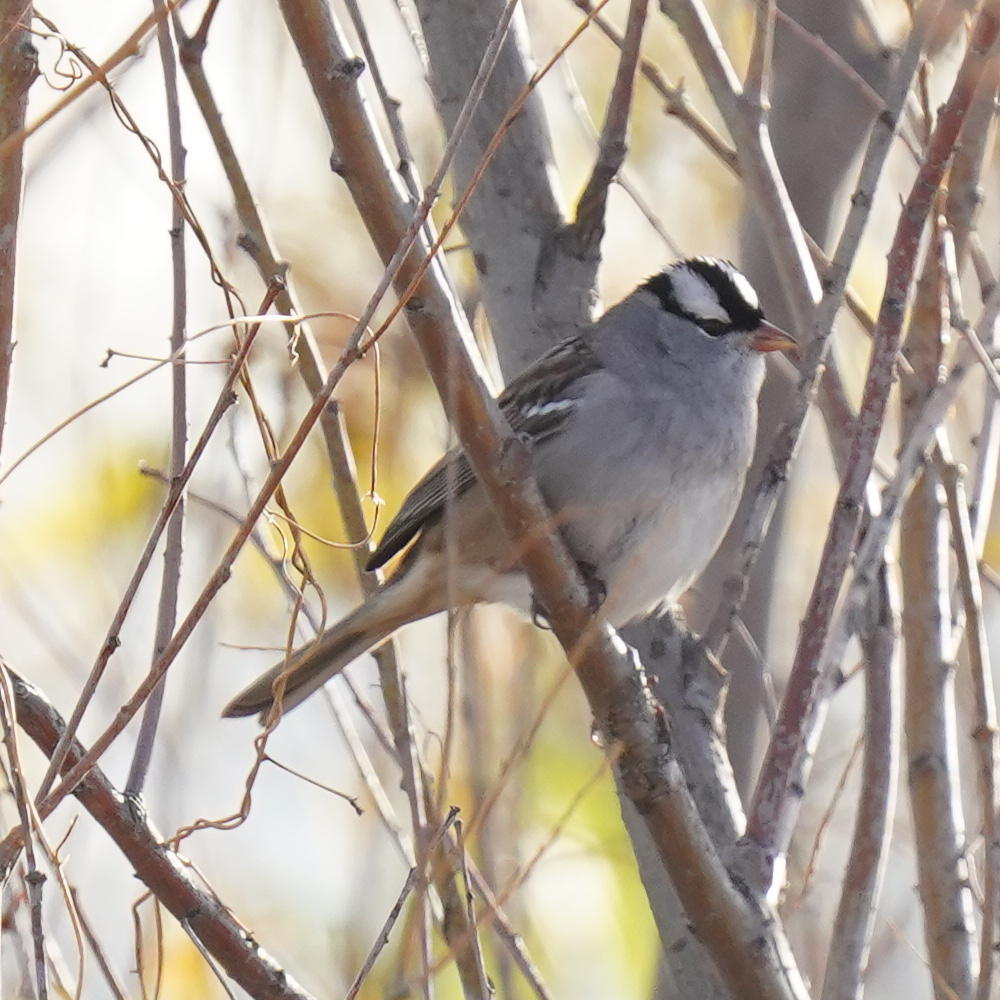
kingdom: Animalia
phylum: Chordata
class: Aves
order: Passeriformes
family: Passerellidae
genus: Zonotrichia
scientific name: Zonotrichia leucophrys
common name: White-crowned sparrow
